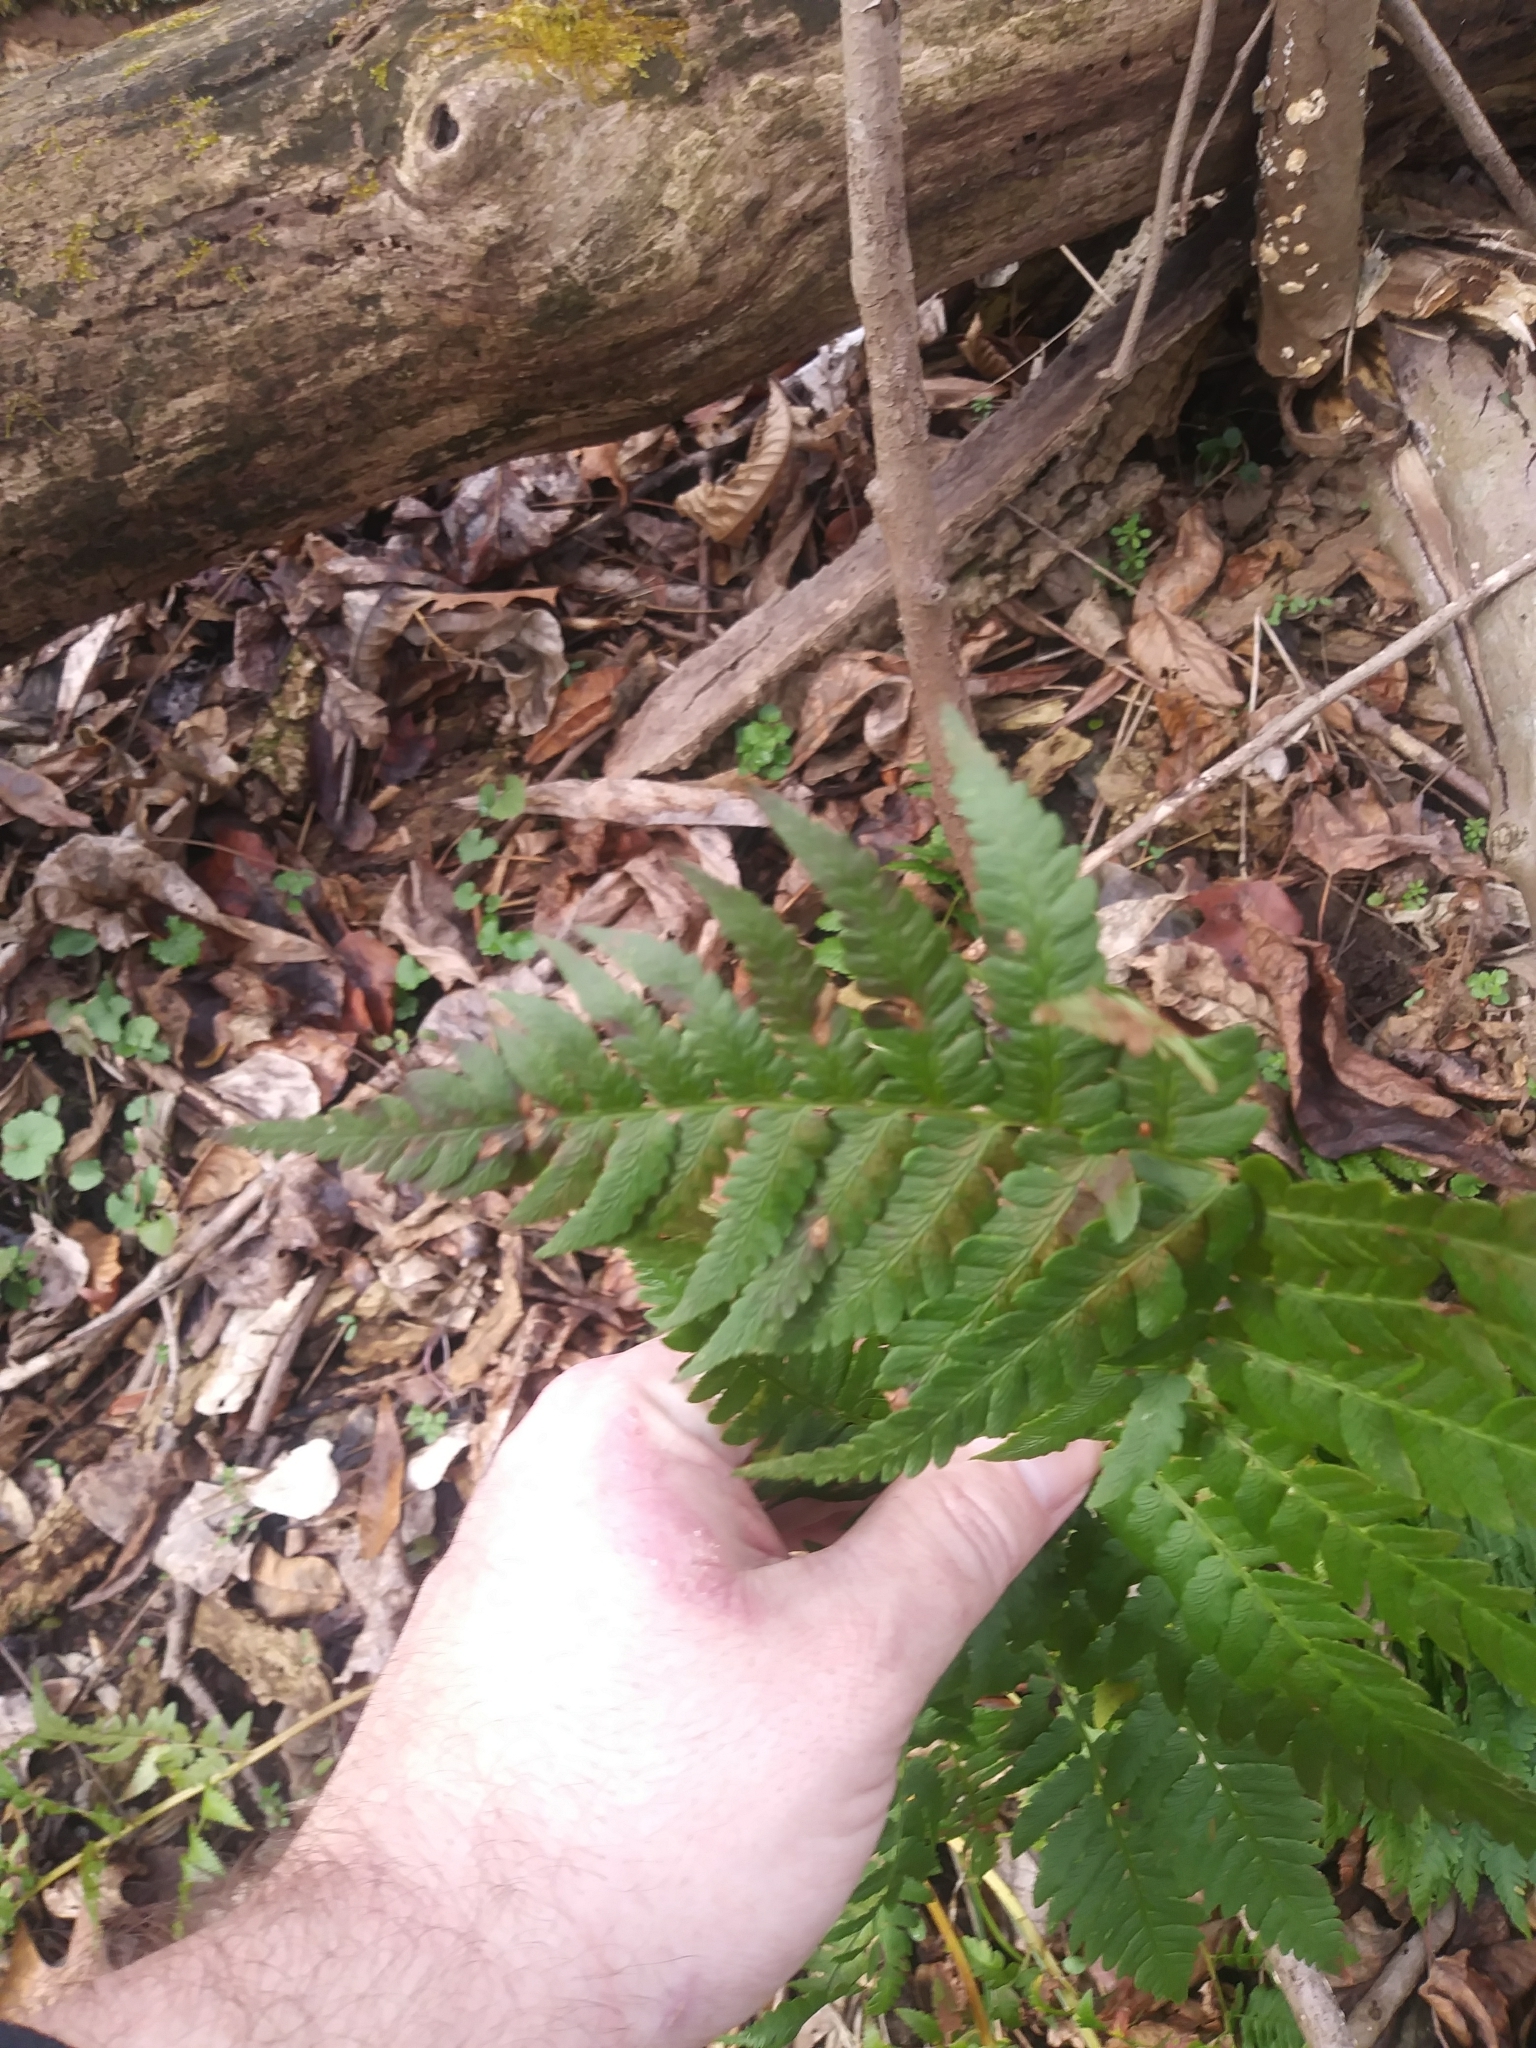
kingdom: Plantae
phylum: Tracheophyta
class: Polypodiopsida
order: Polypodiales
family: Dryopteridaceae
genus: Dryopteris
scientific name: Dryopteris celsa
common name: Log fern
